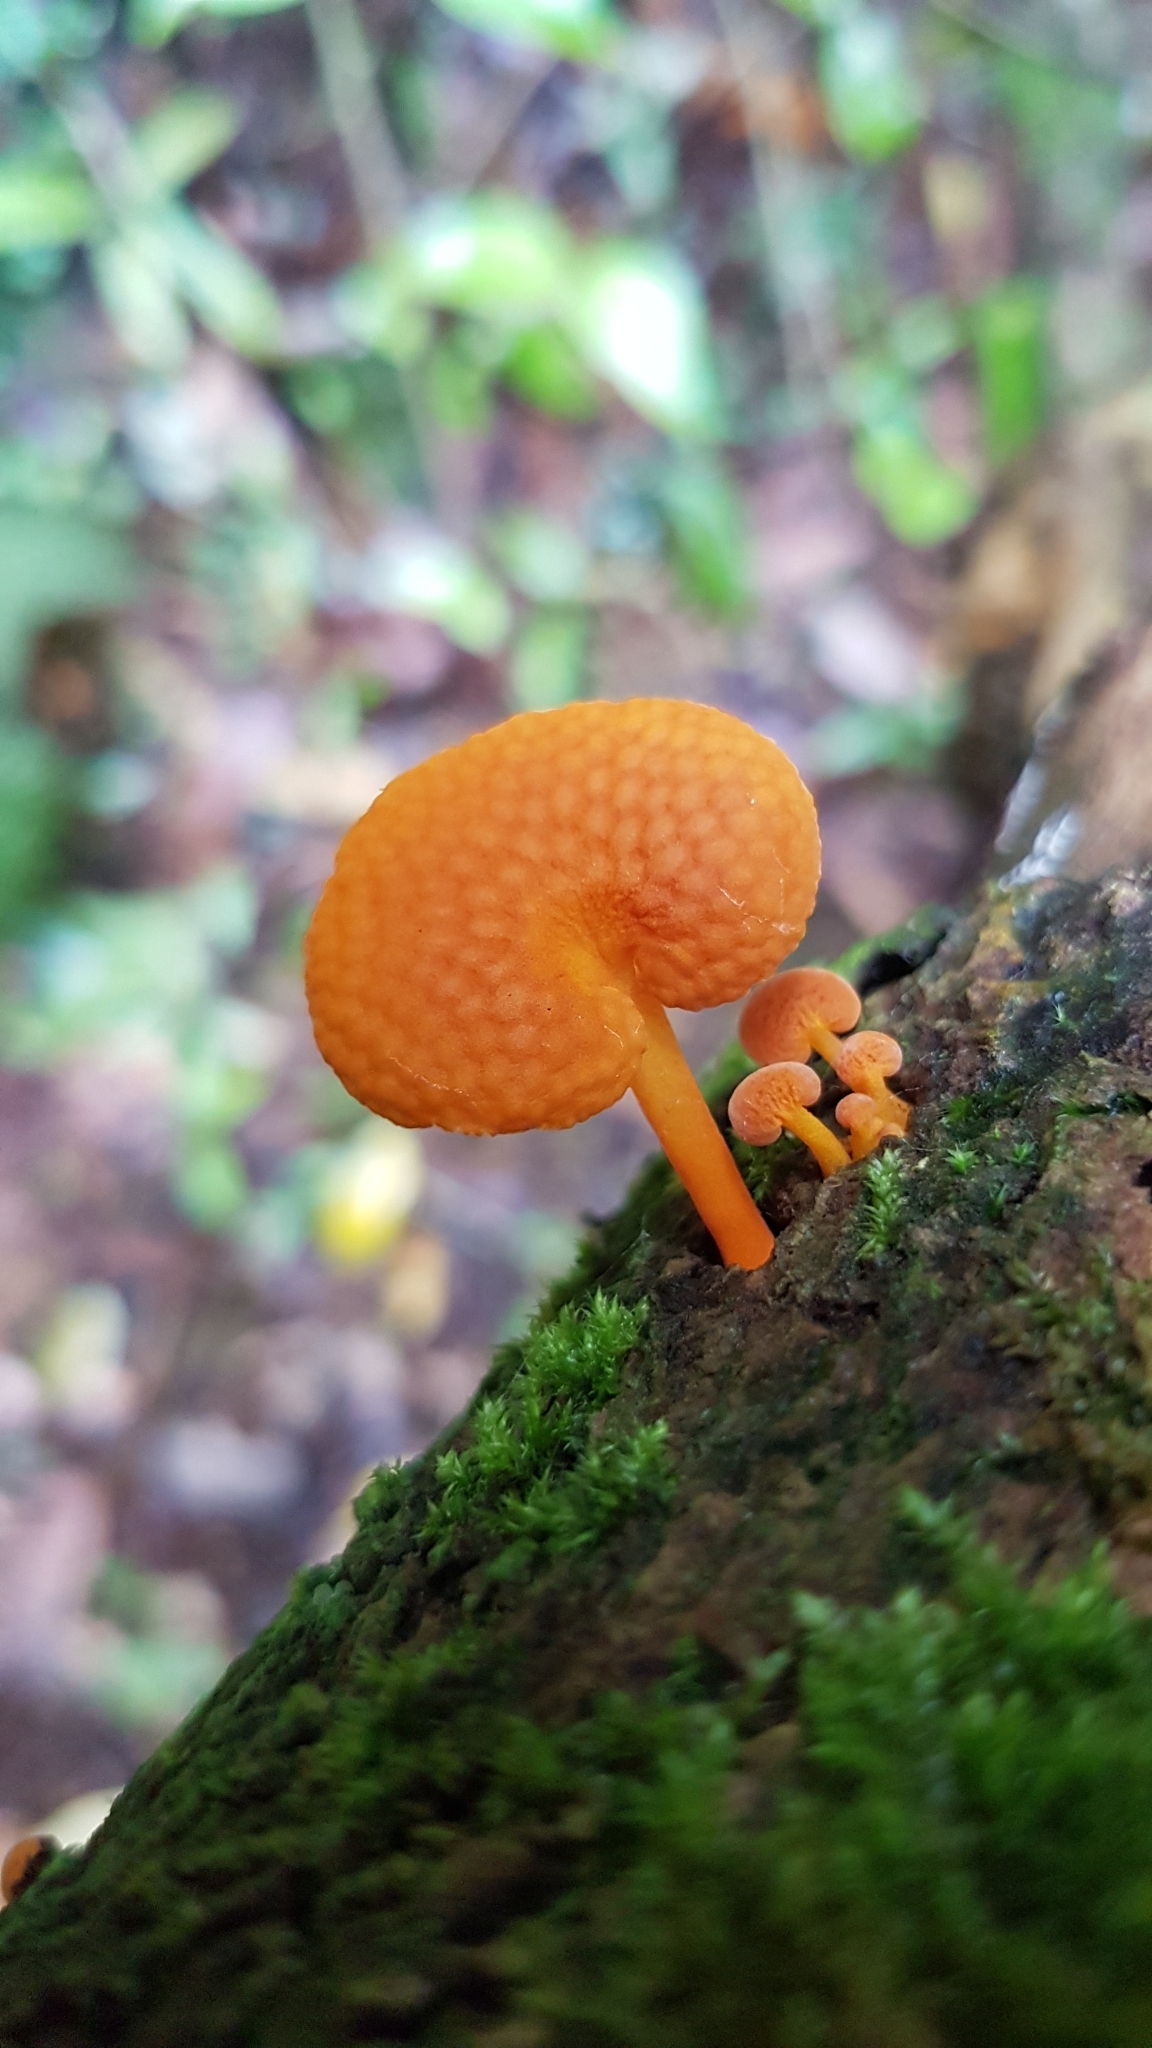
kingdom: Fungi
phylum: Basidiomycota
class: Agaricomycetes
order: Agaricales
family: Mycenaceae
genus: Favolaschia
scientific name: Favolaschia claudopus
